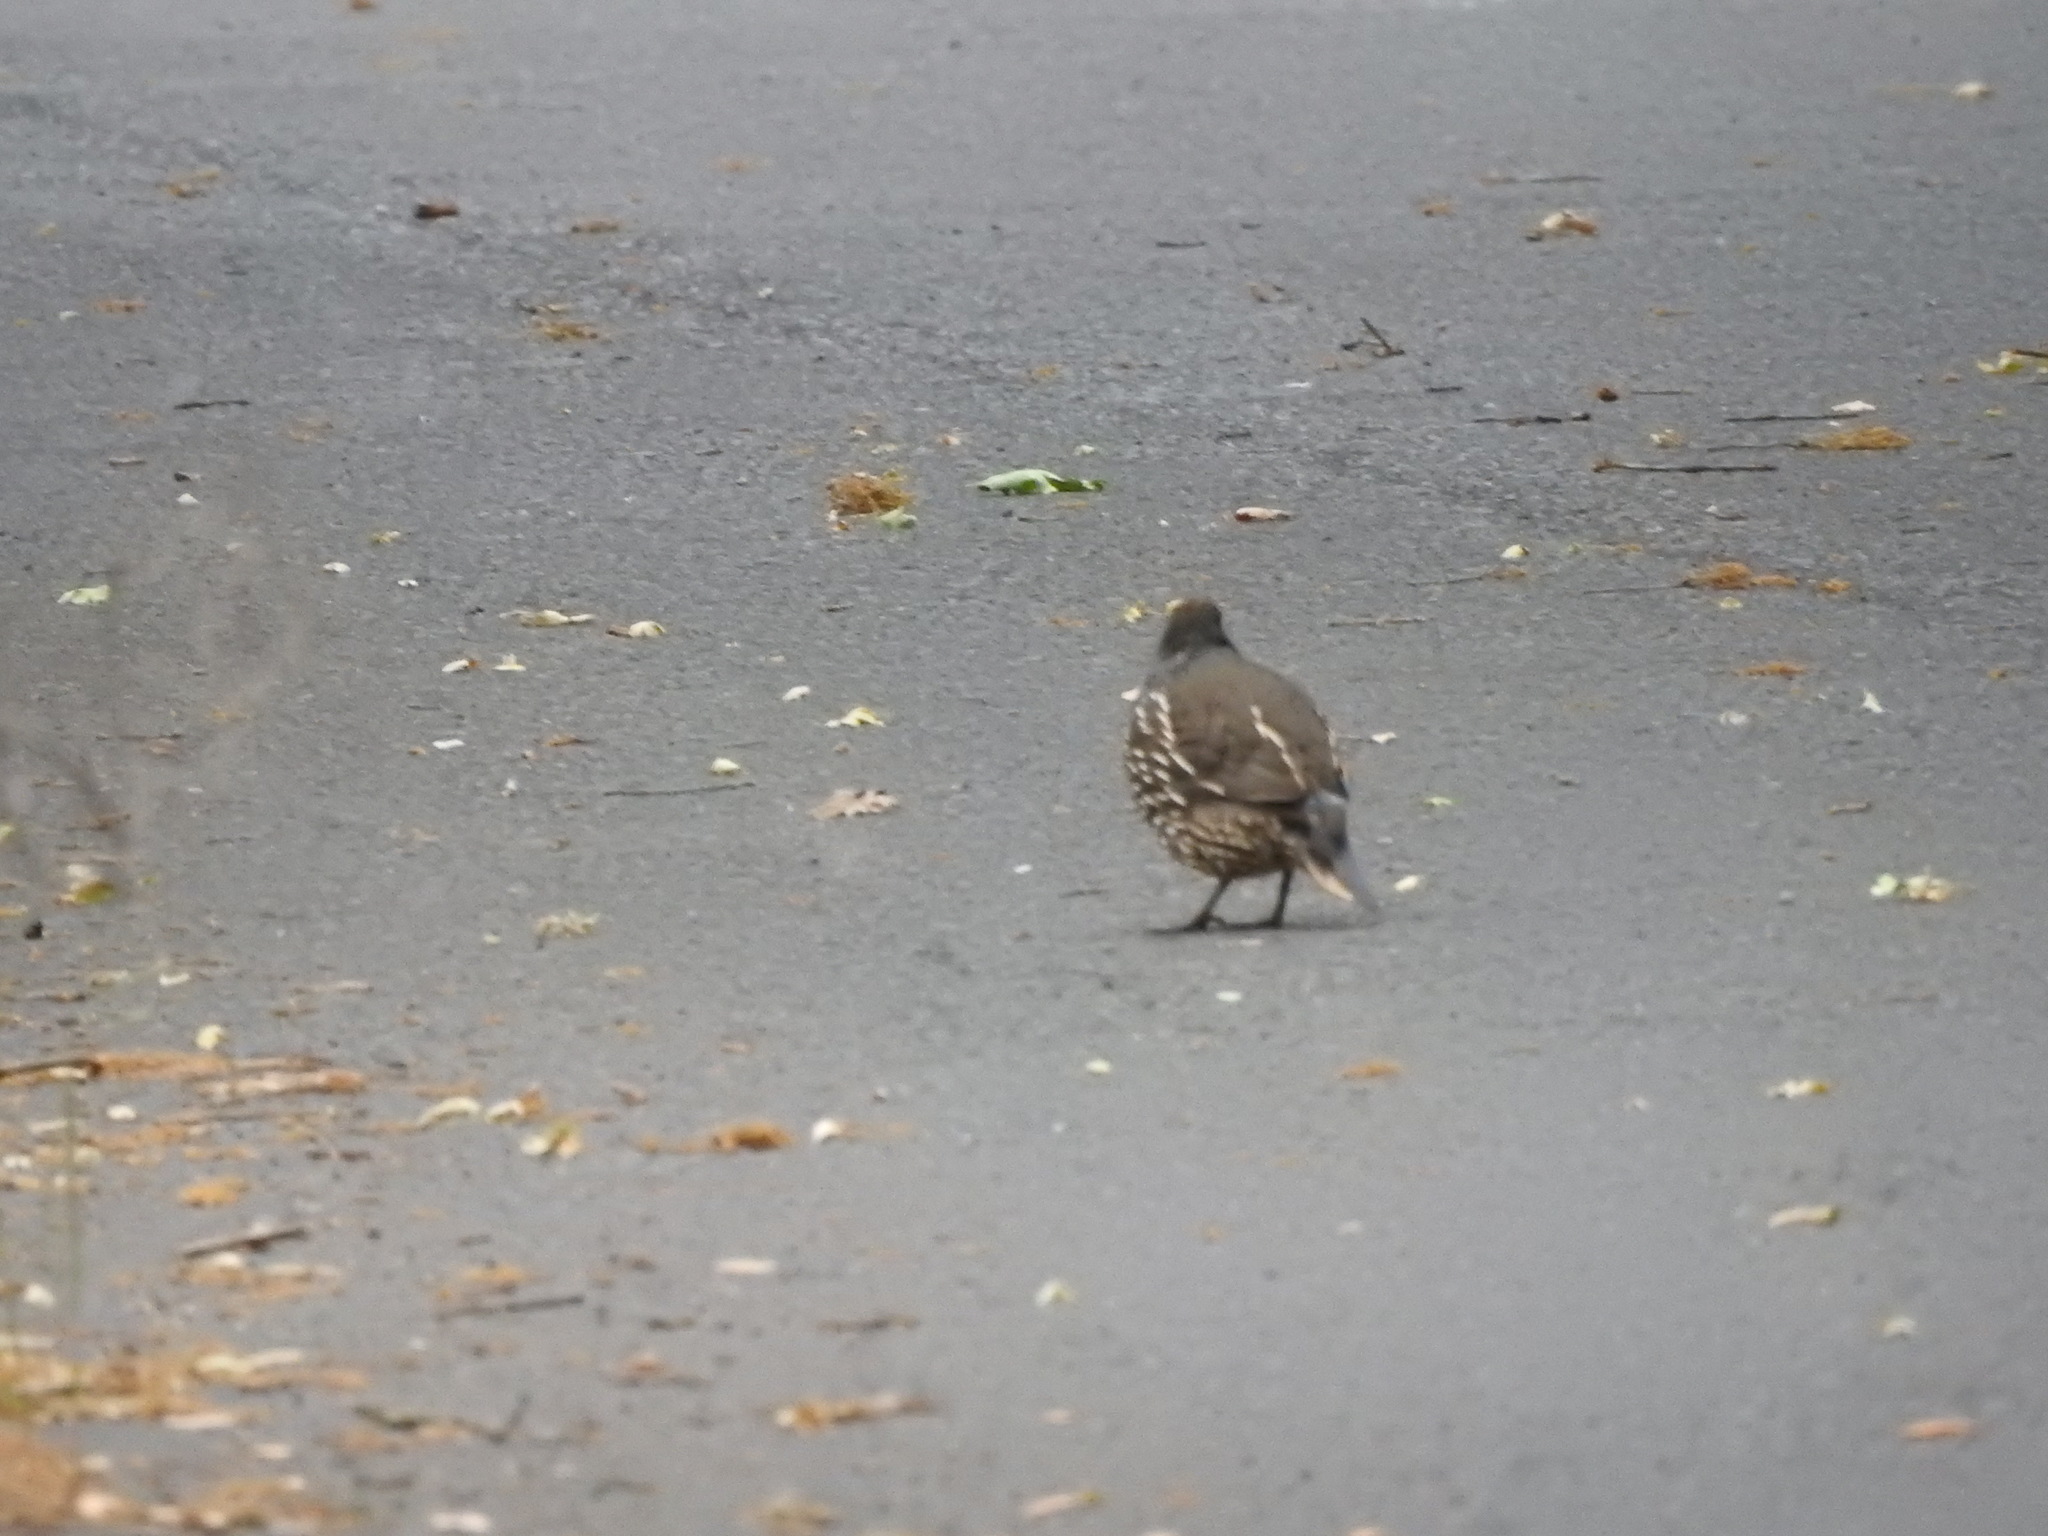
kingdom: Animalia
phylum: Chordata
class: Aves
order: Galliformes
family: Odontophoridae
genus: Callipepla
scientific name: Callipepla californica
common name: California quail
